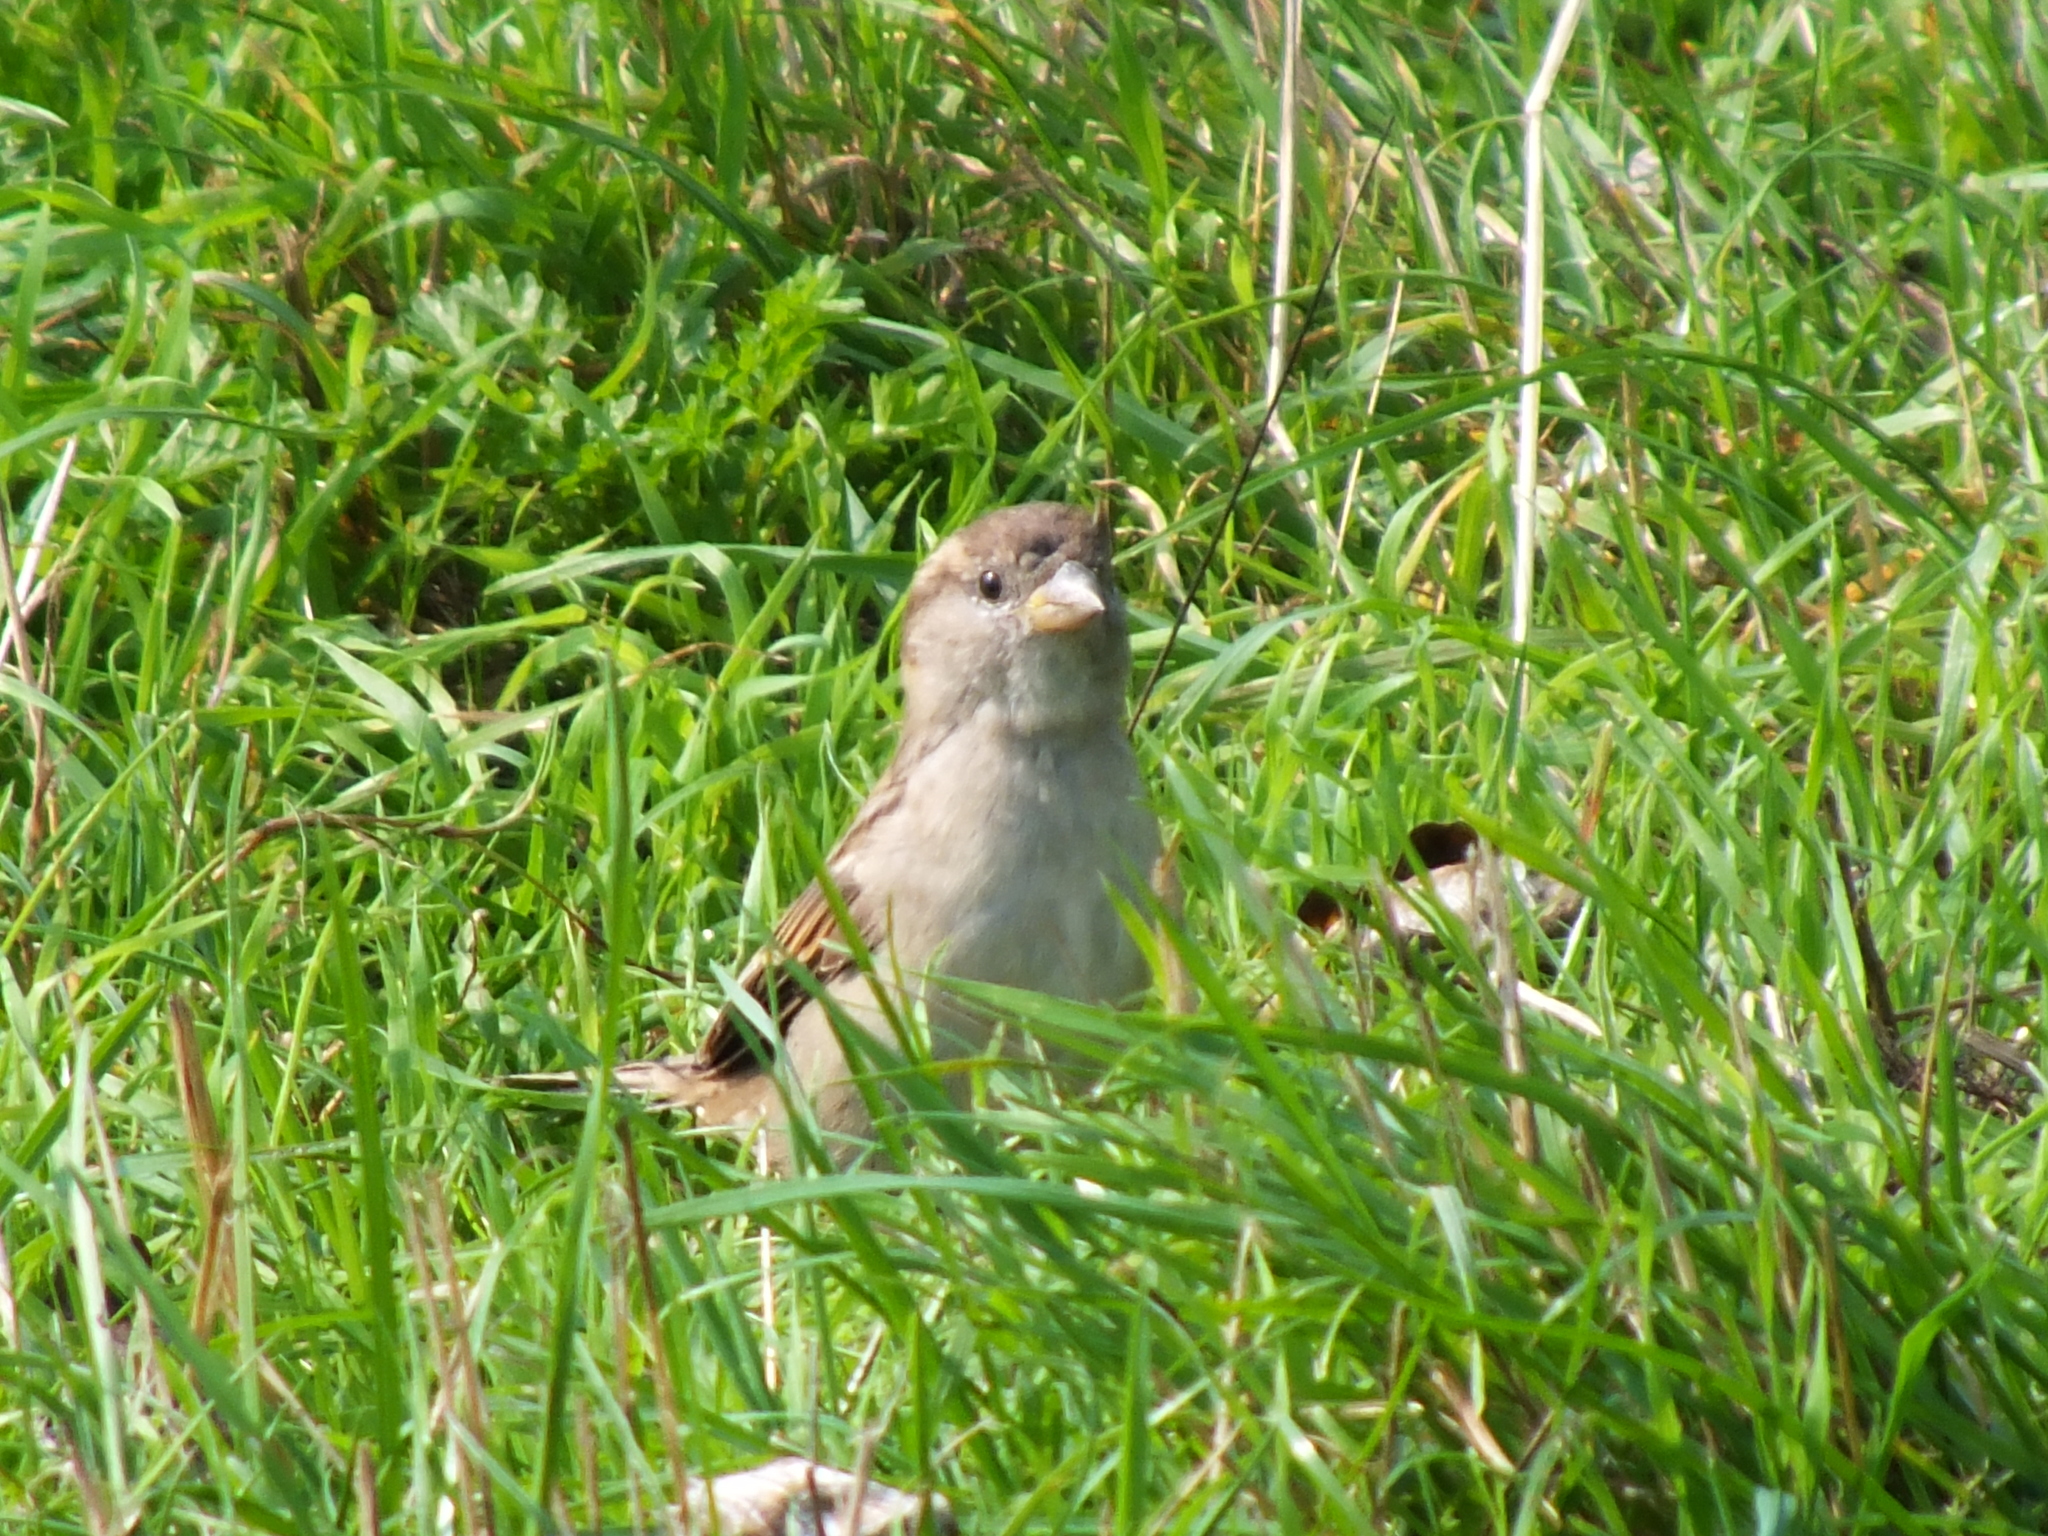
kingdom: Animalia
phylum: Chordata
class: Aves
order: Passeriformes
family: Passeridae
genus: Passer
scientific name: Passer domesticus
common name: House sparrow
